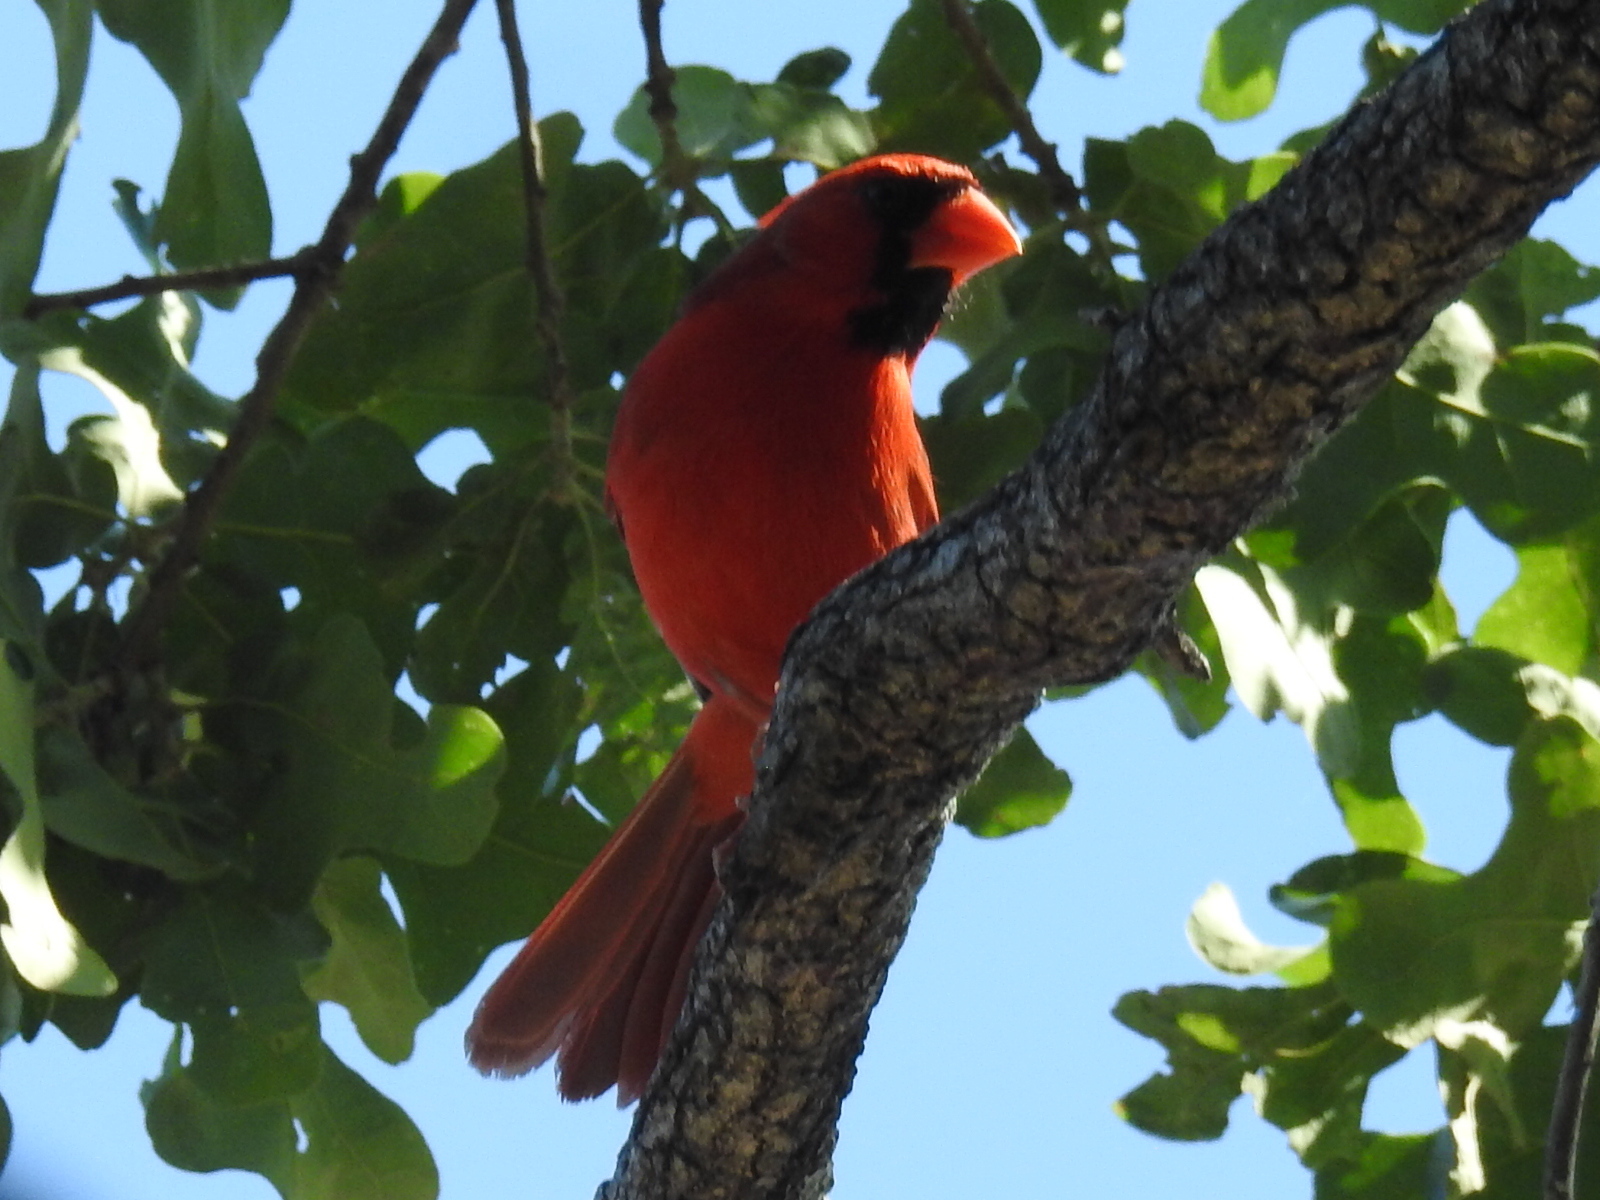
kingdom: Animalia
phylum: Chordata
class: Aves
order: Passeriformes
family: Cardinalidae
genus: Cardinalis
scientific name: Cardinalis cardinalis
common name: Northern cardinal
